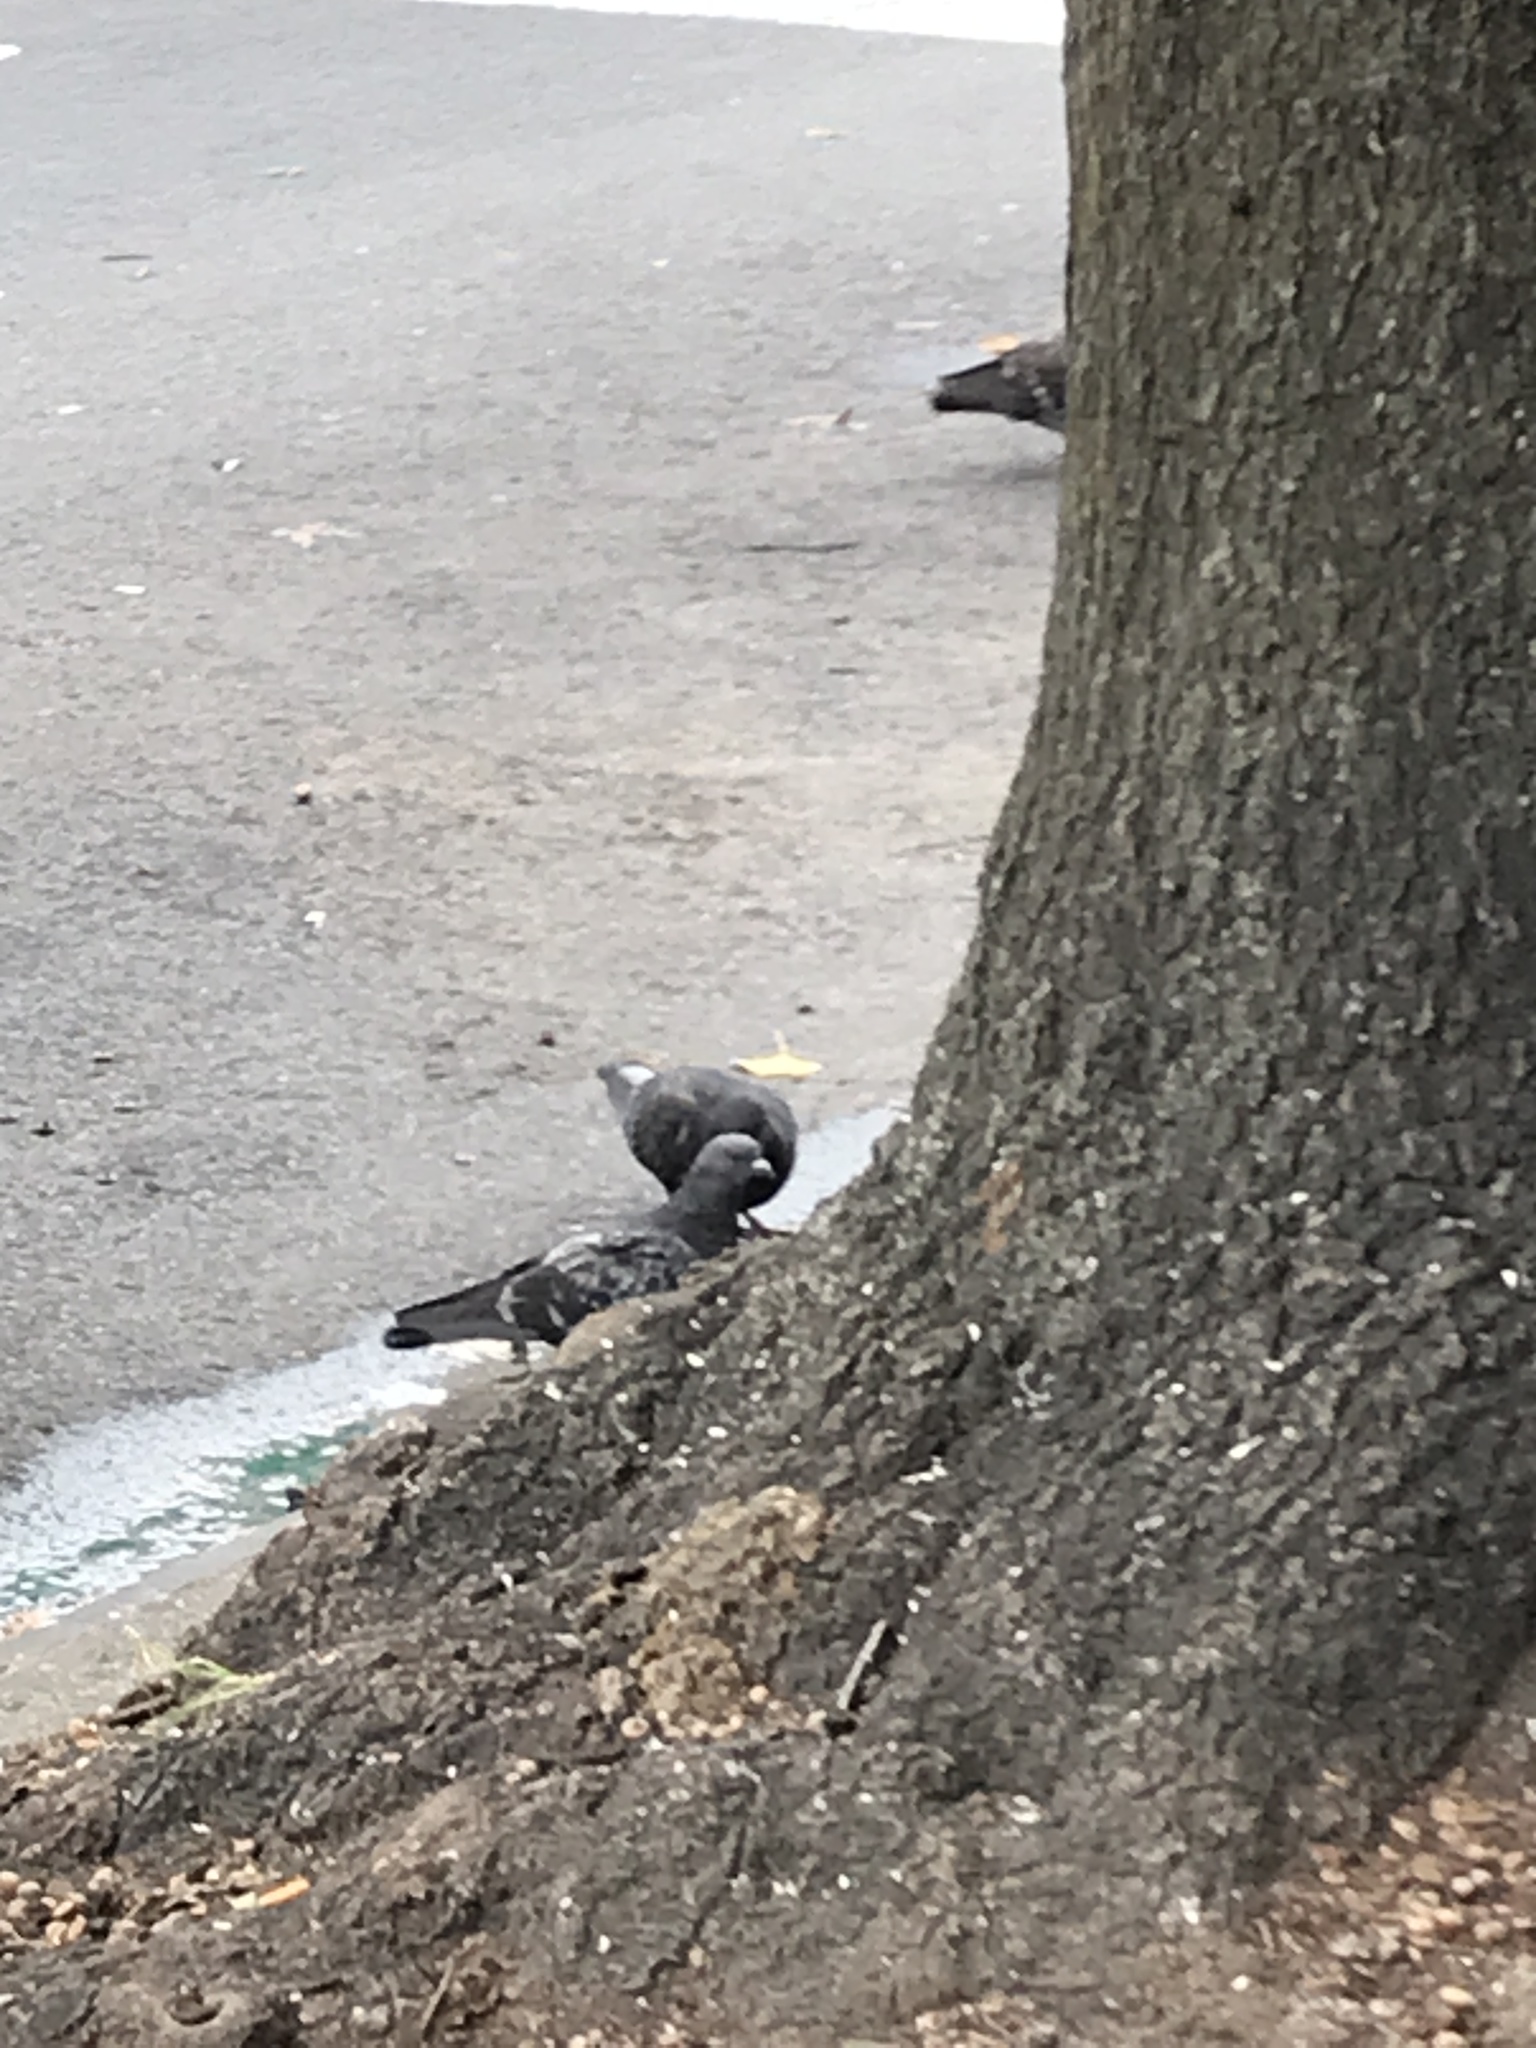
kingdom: Animalia
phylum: Chordata
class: Aves
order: Columbiformes
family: Columbidae
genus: Columba
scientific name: Columba livia
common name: Rock pigeon
